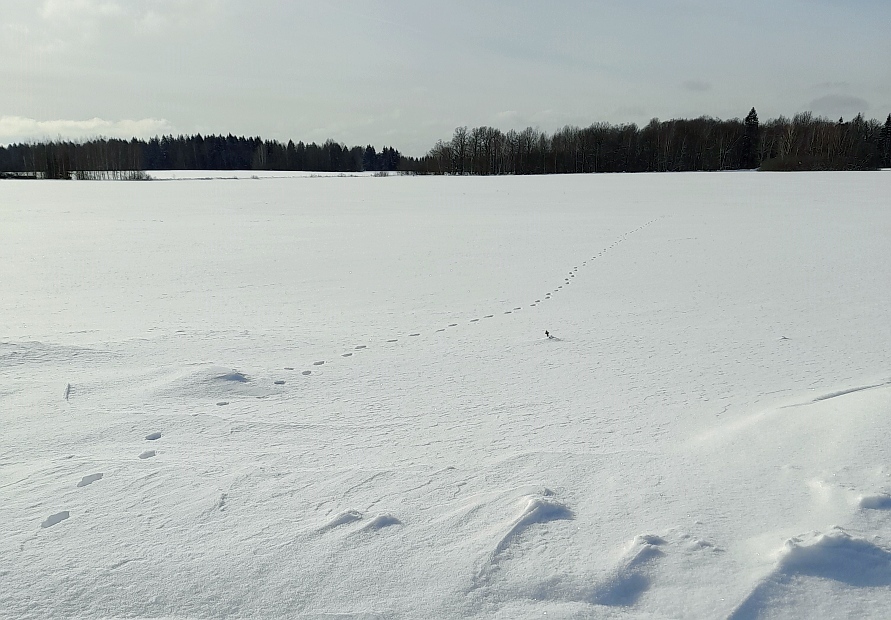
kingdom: Animalia
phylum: Chordata
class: Mammalia
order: Carnivora
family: Canidae
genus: Vulpes
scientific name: Vulpes vulpes
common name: Red fox
